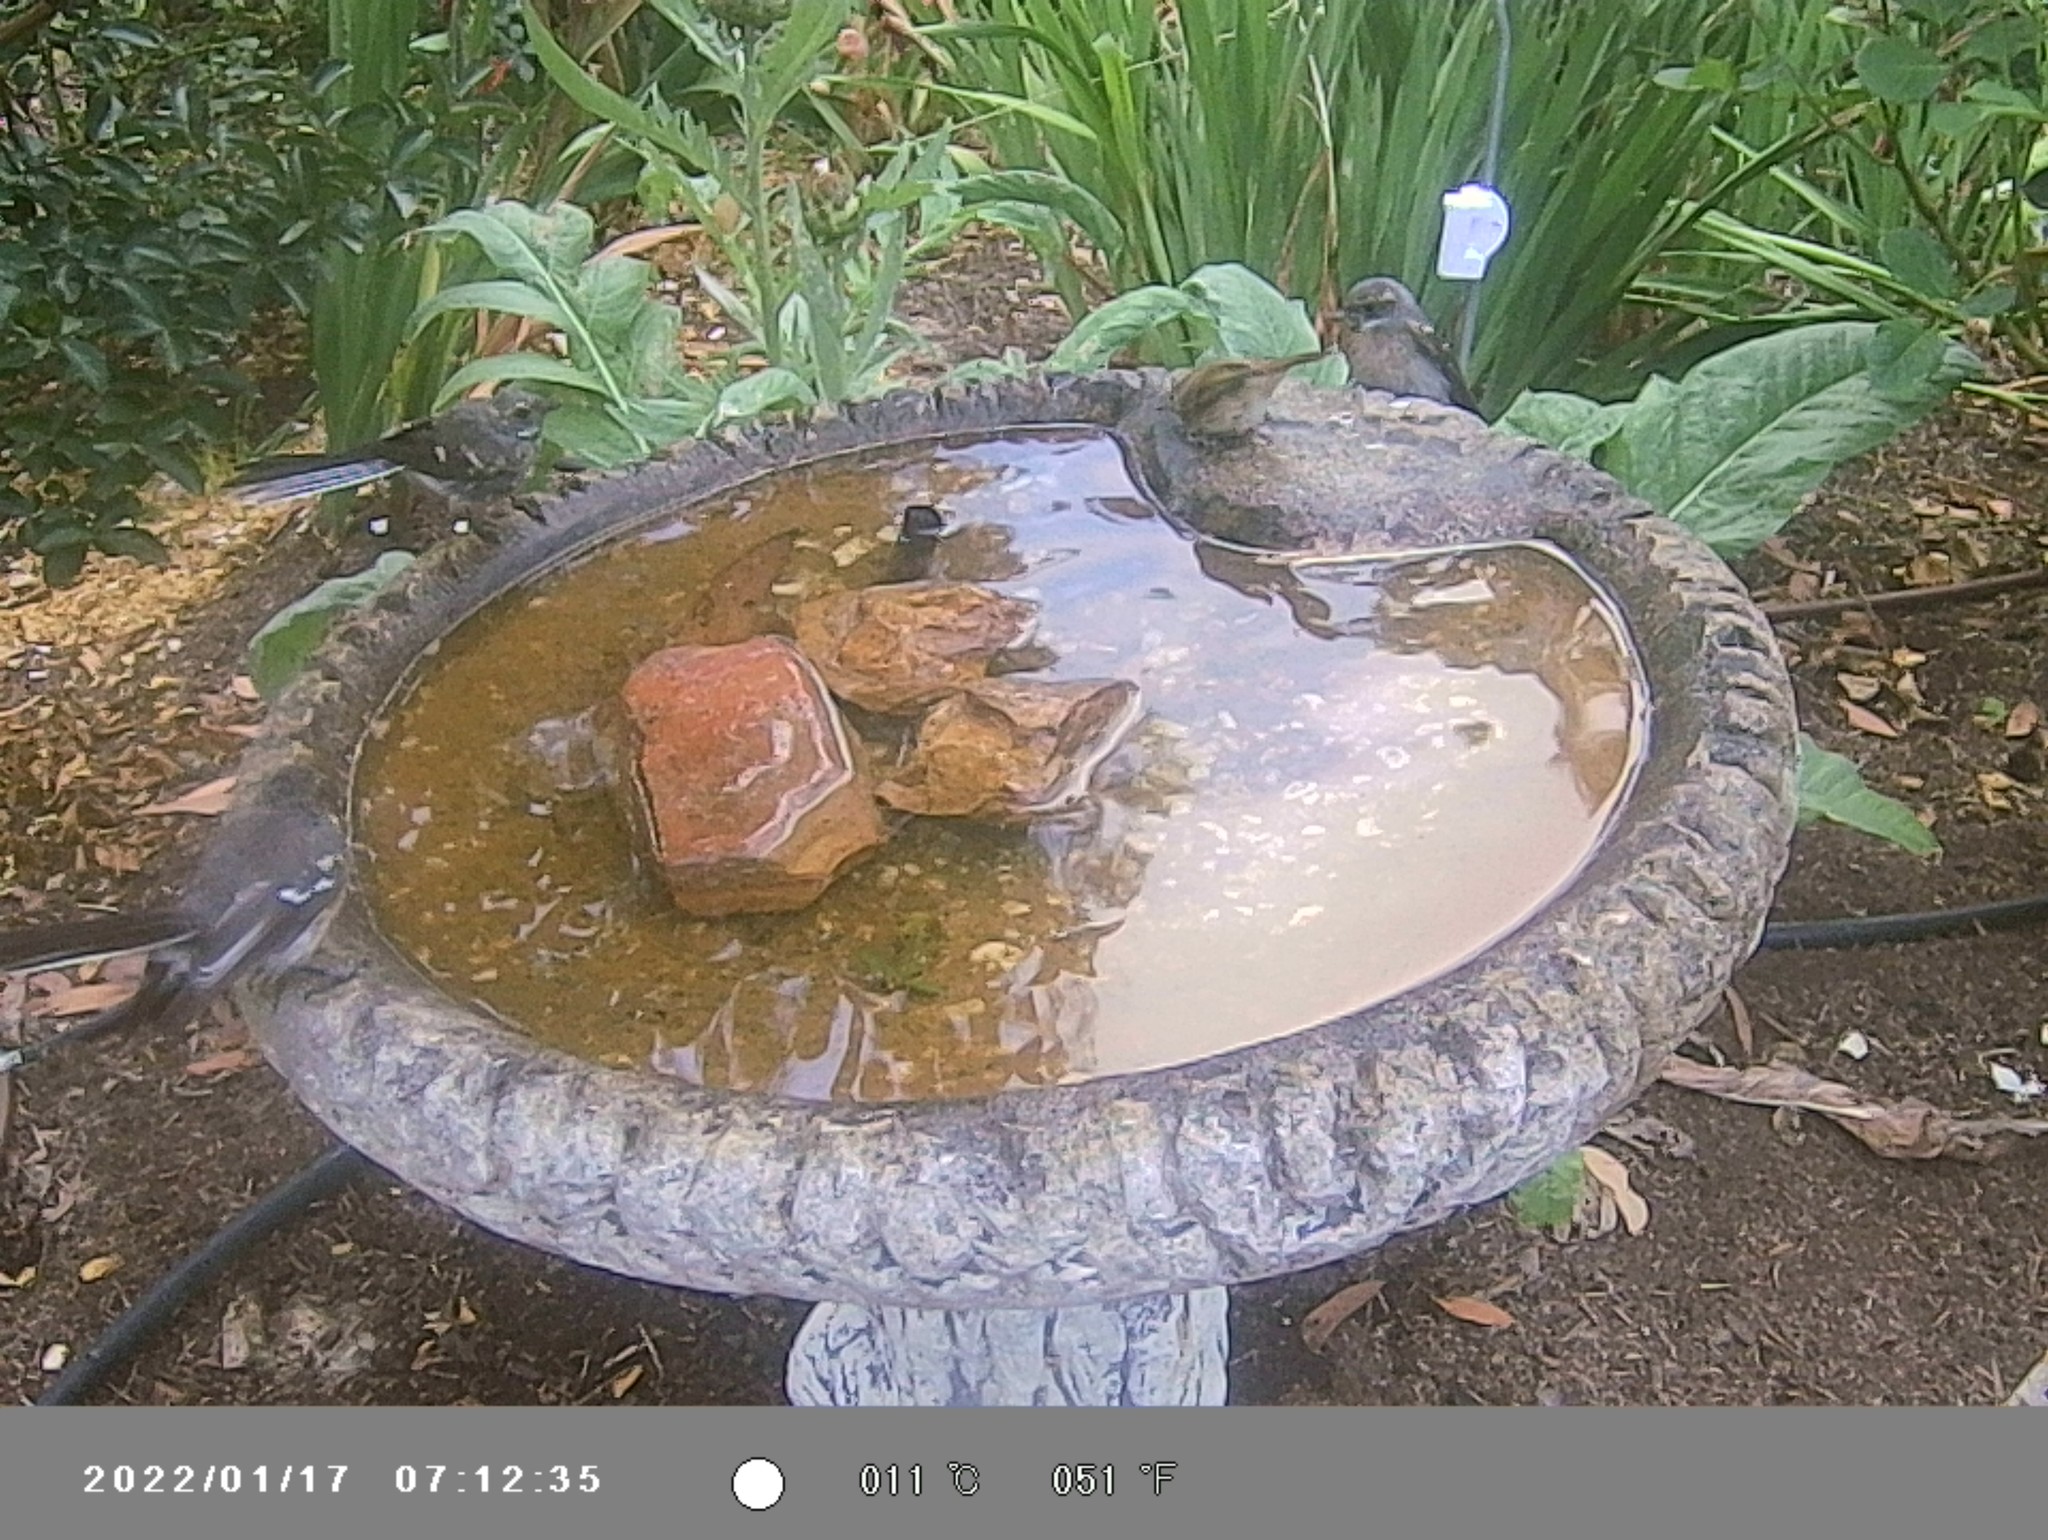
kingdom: Animalia
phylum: Chordata
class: Aves
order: Passeriformes
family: Acanthizidae
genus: Sericornis
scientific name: Sericornis frontalis
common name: White-browed scrubwren
